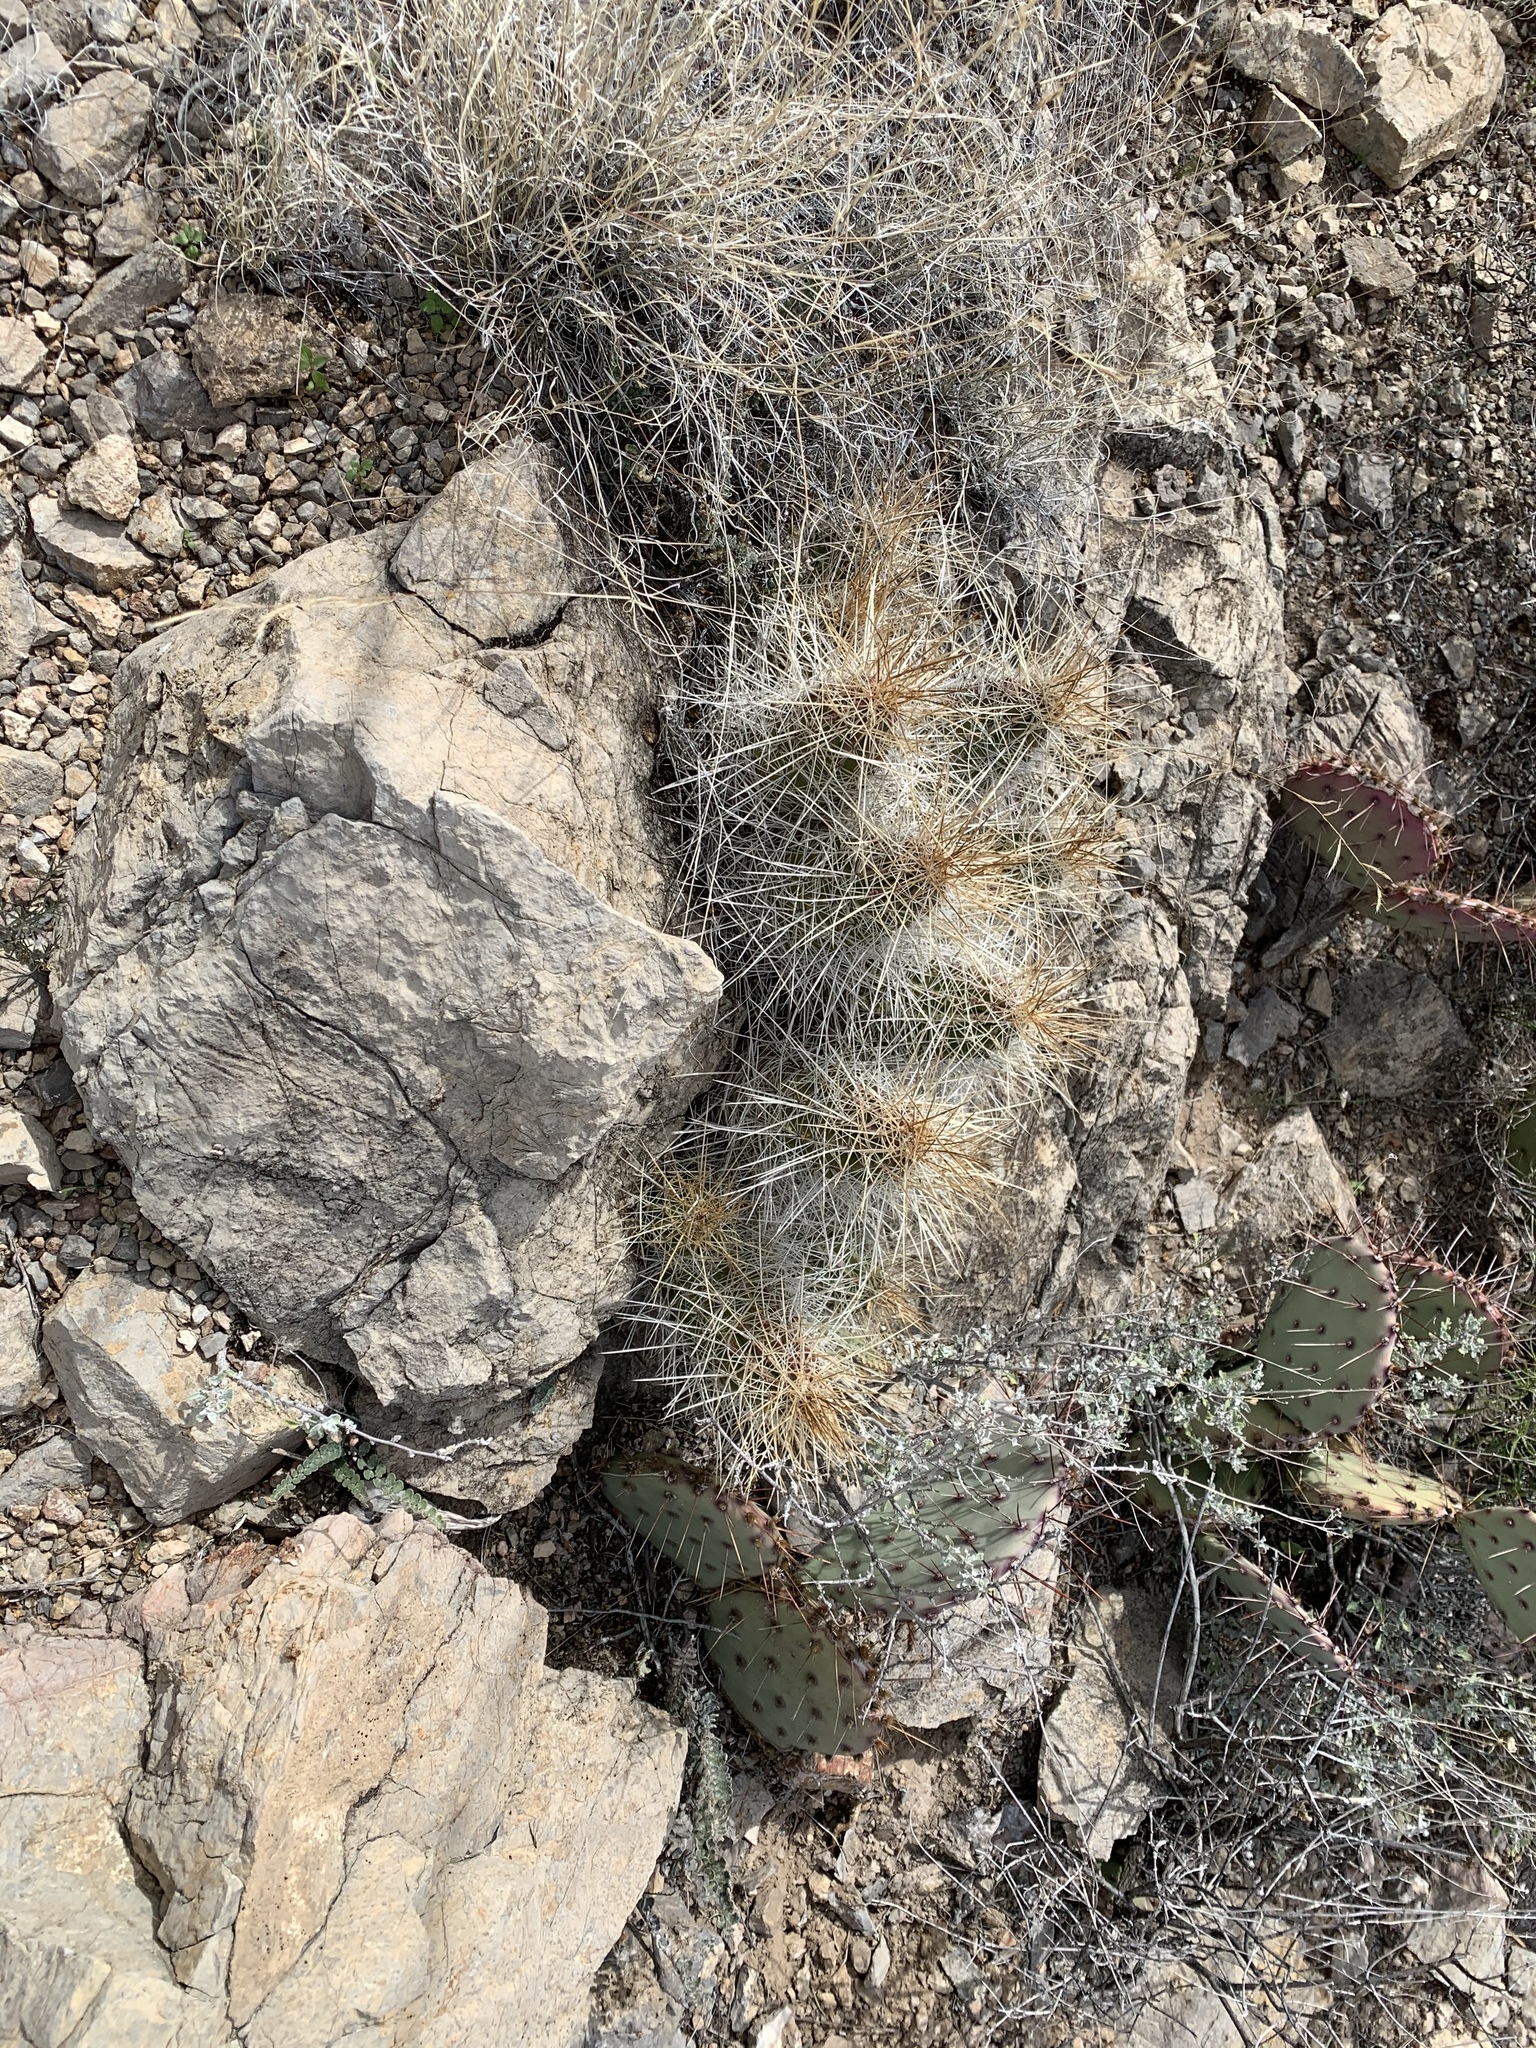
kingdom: Plantae
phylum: Tracheophyta
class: Magnoliopsida
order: Caryophyllales
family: Cactaceae
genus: Echinocereus
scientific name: Echinocereus stramineus
